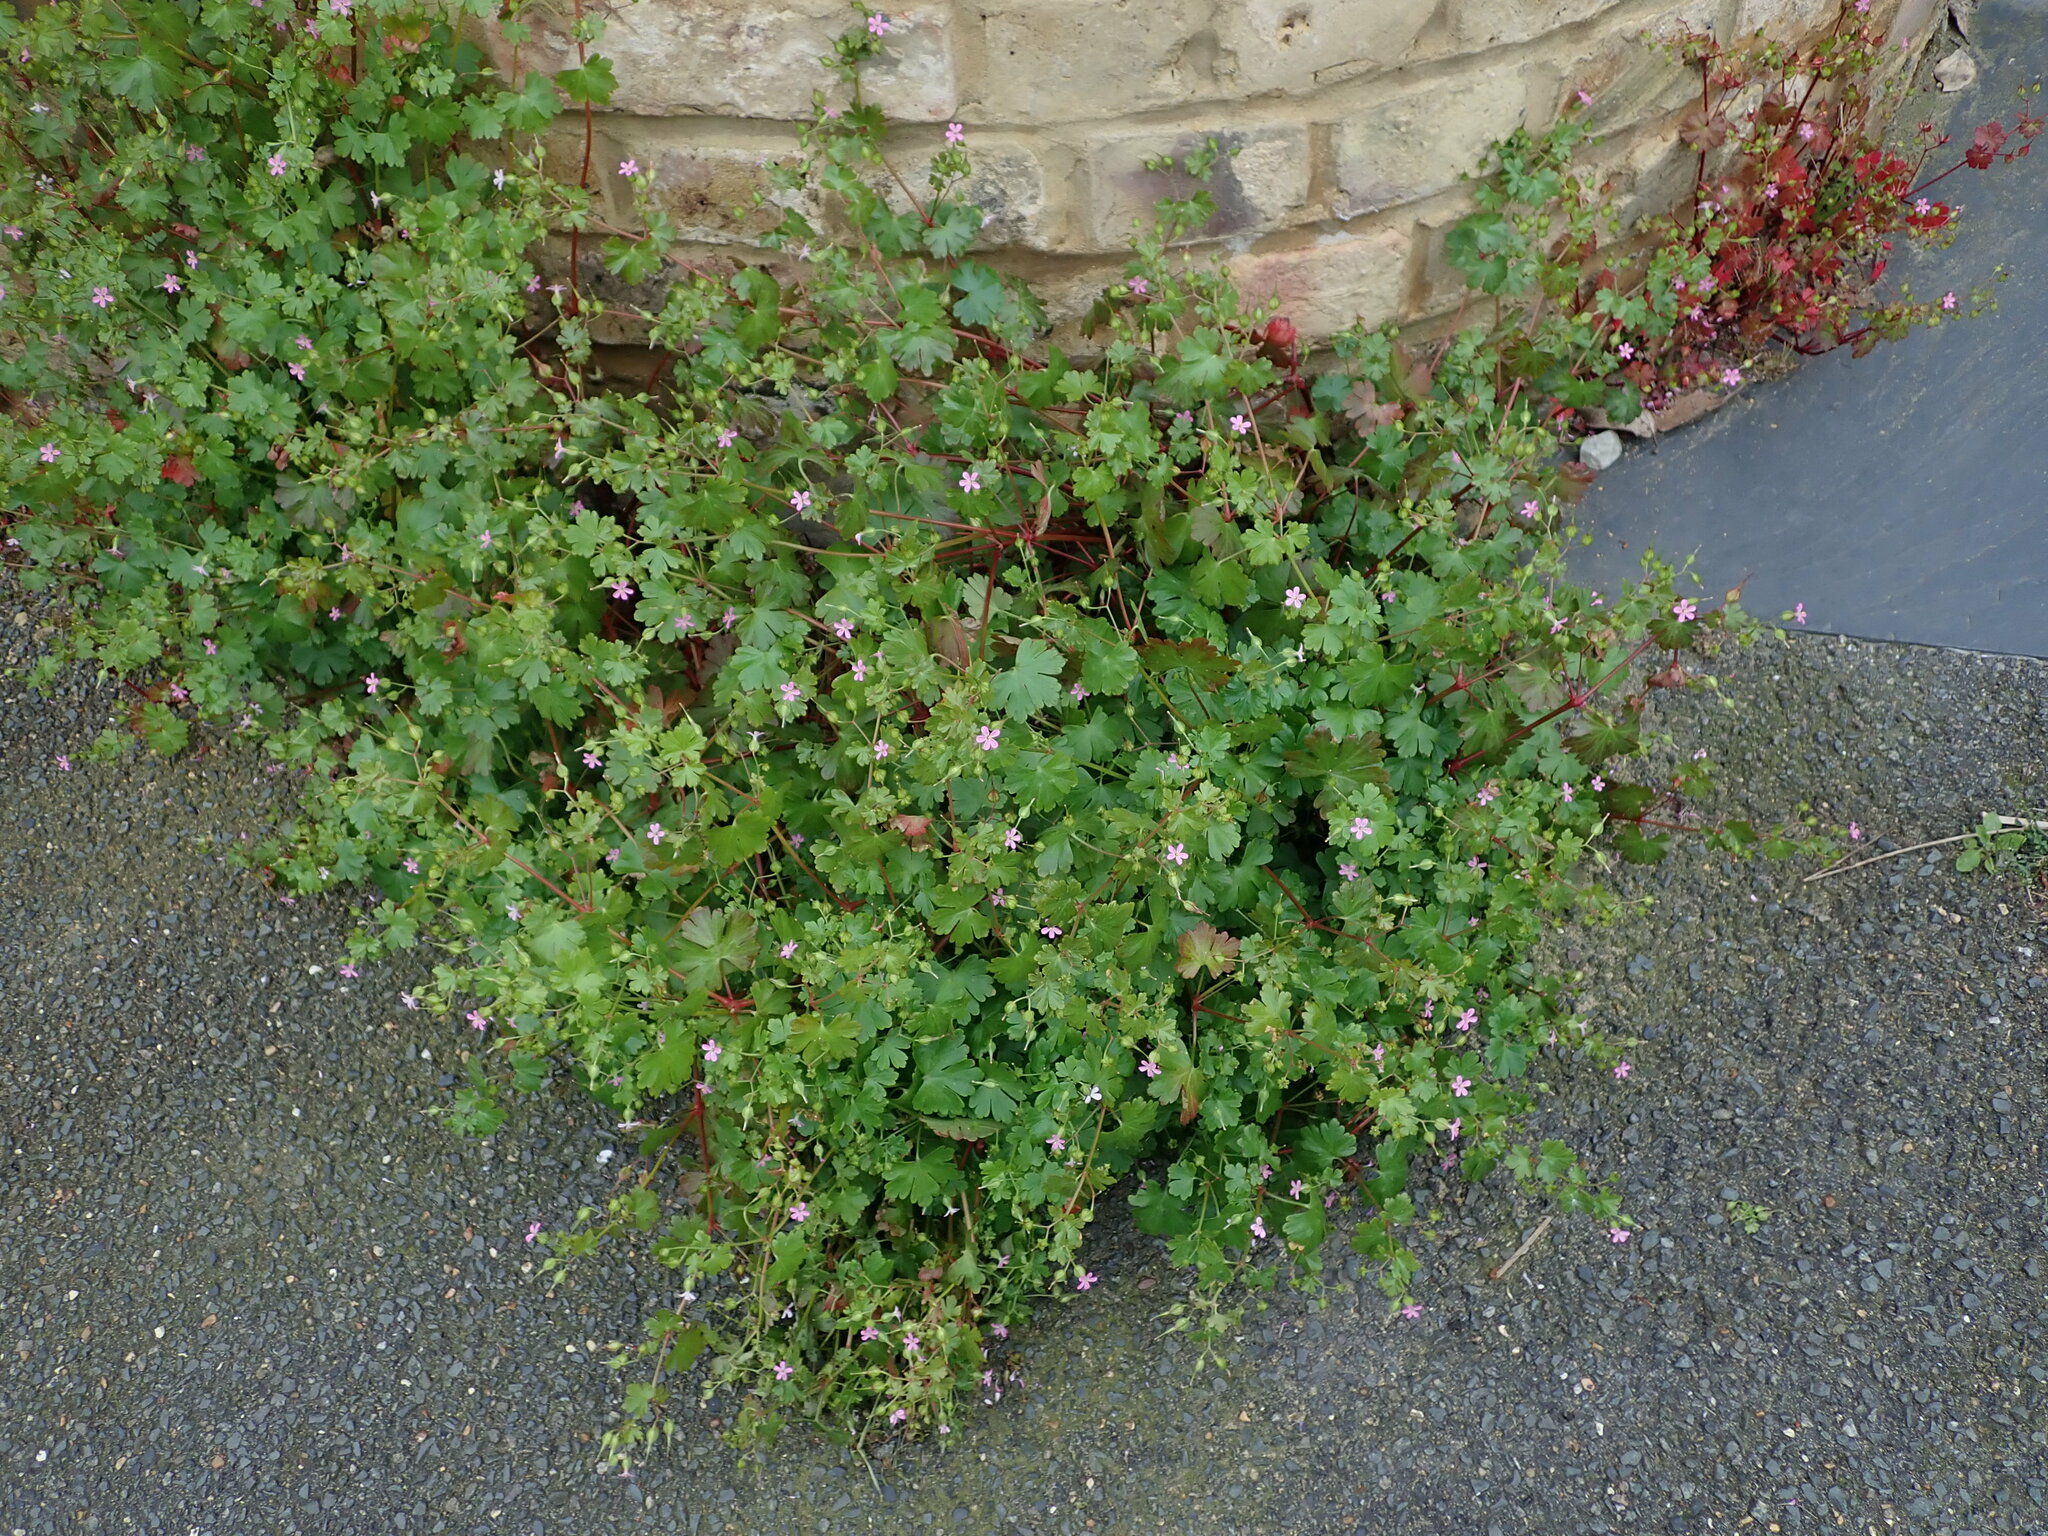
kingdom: Plantae
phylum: Tracheophyta
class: Magnoliopsida
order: Geraniales
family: Geraniaceae
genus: Geranium
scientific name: Geranium lucidum
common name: Shining crane's-bill
